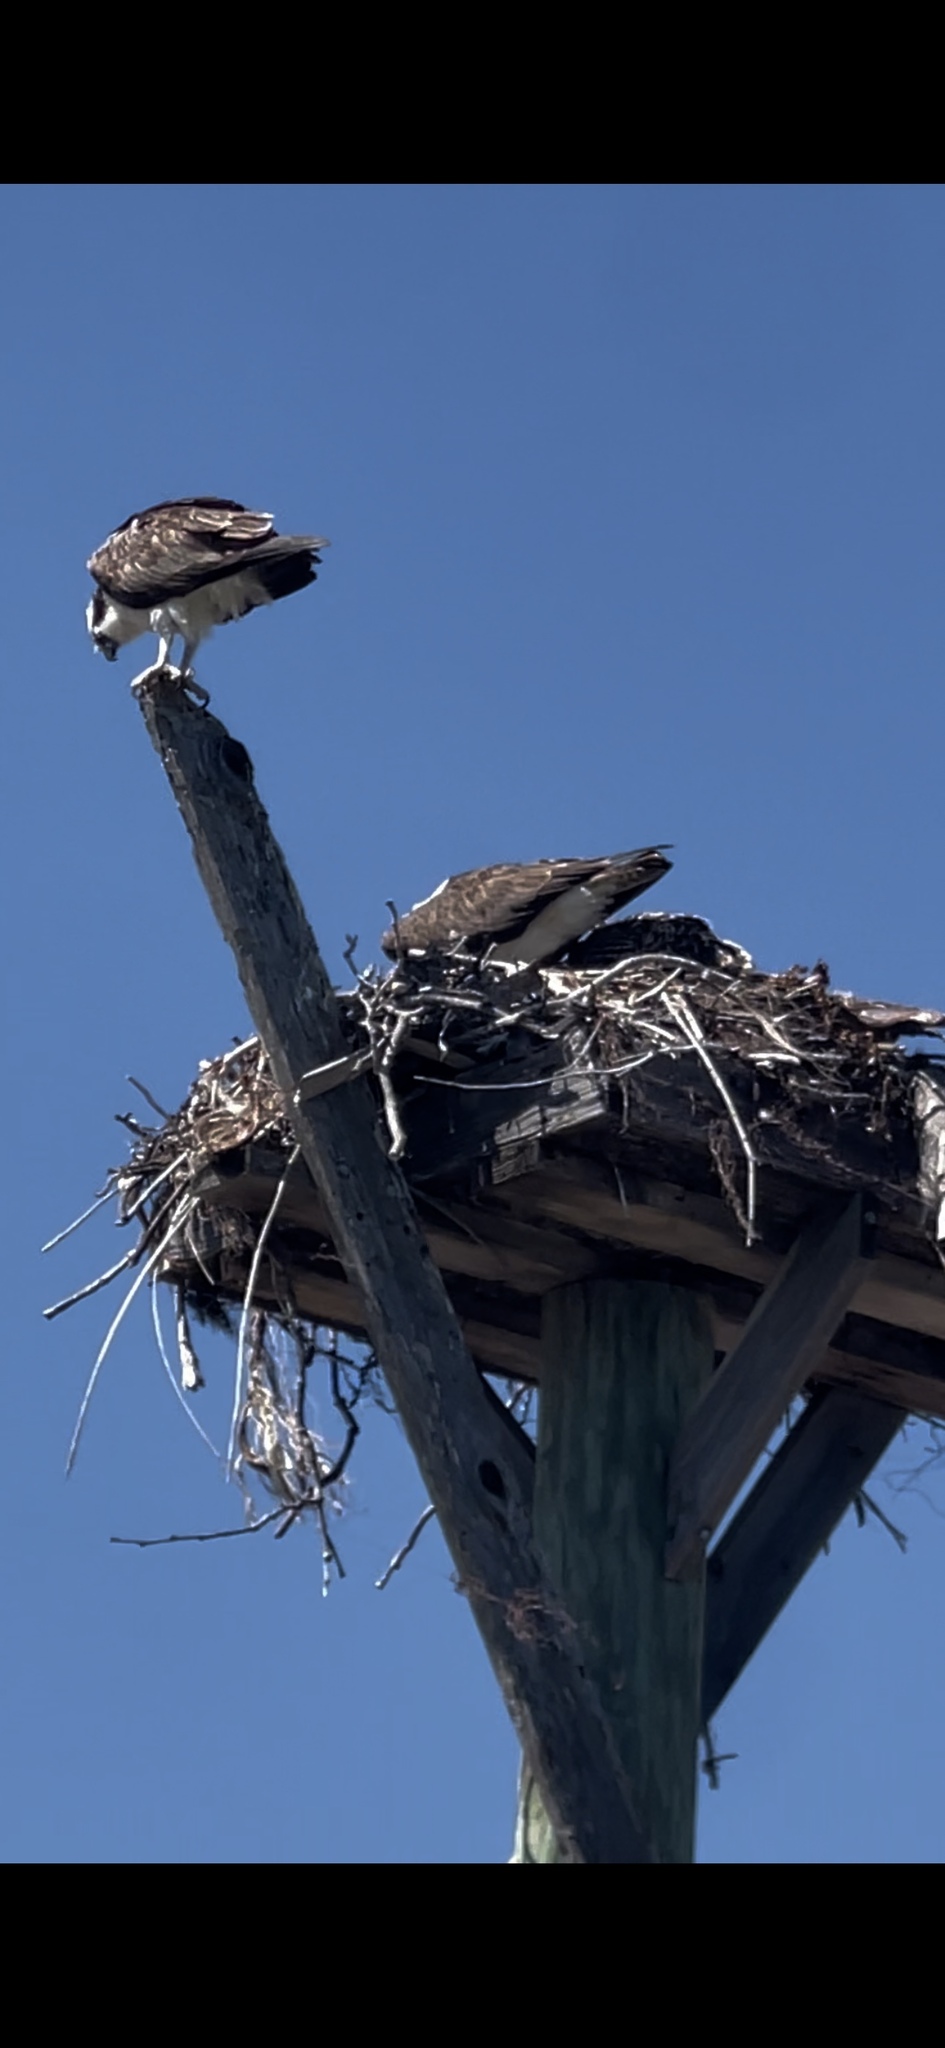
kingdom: Animalia
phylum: Chordata
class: Aves
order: Accipitriformes
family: Pandionidae
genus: Pandion
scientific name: Pandion haliaetus
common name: Osprey
